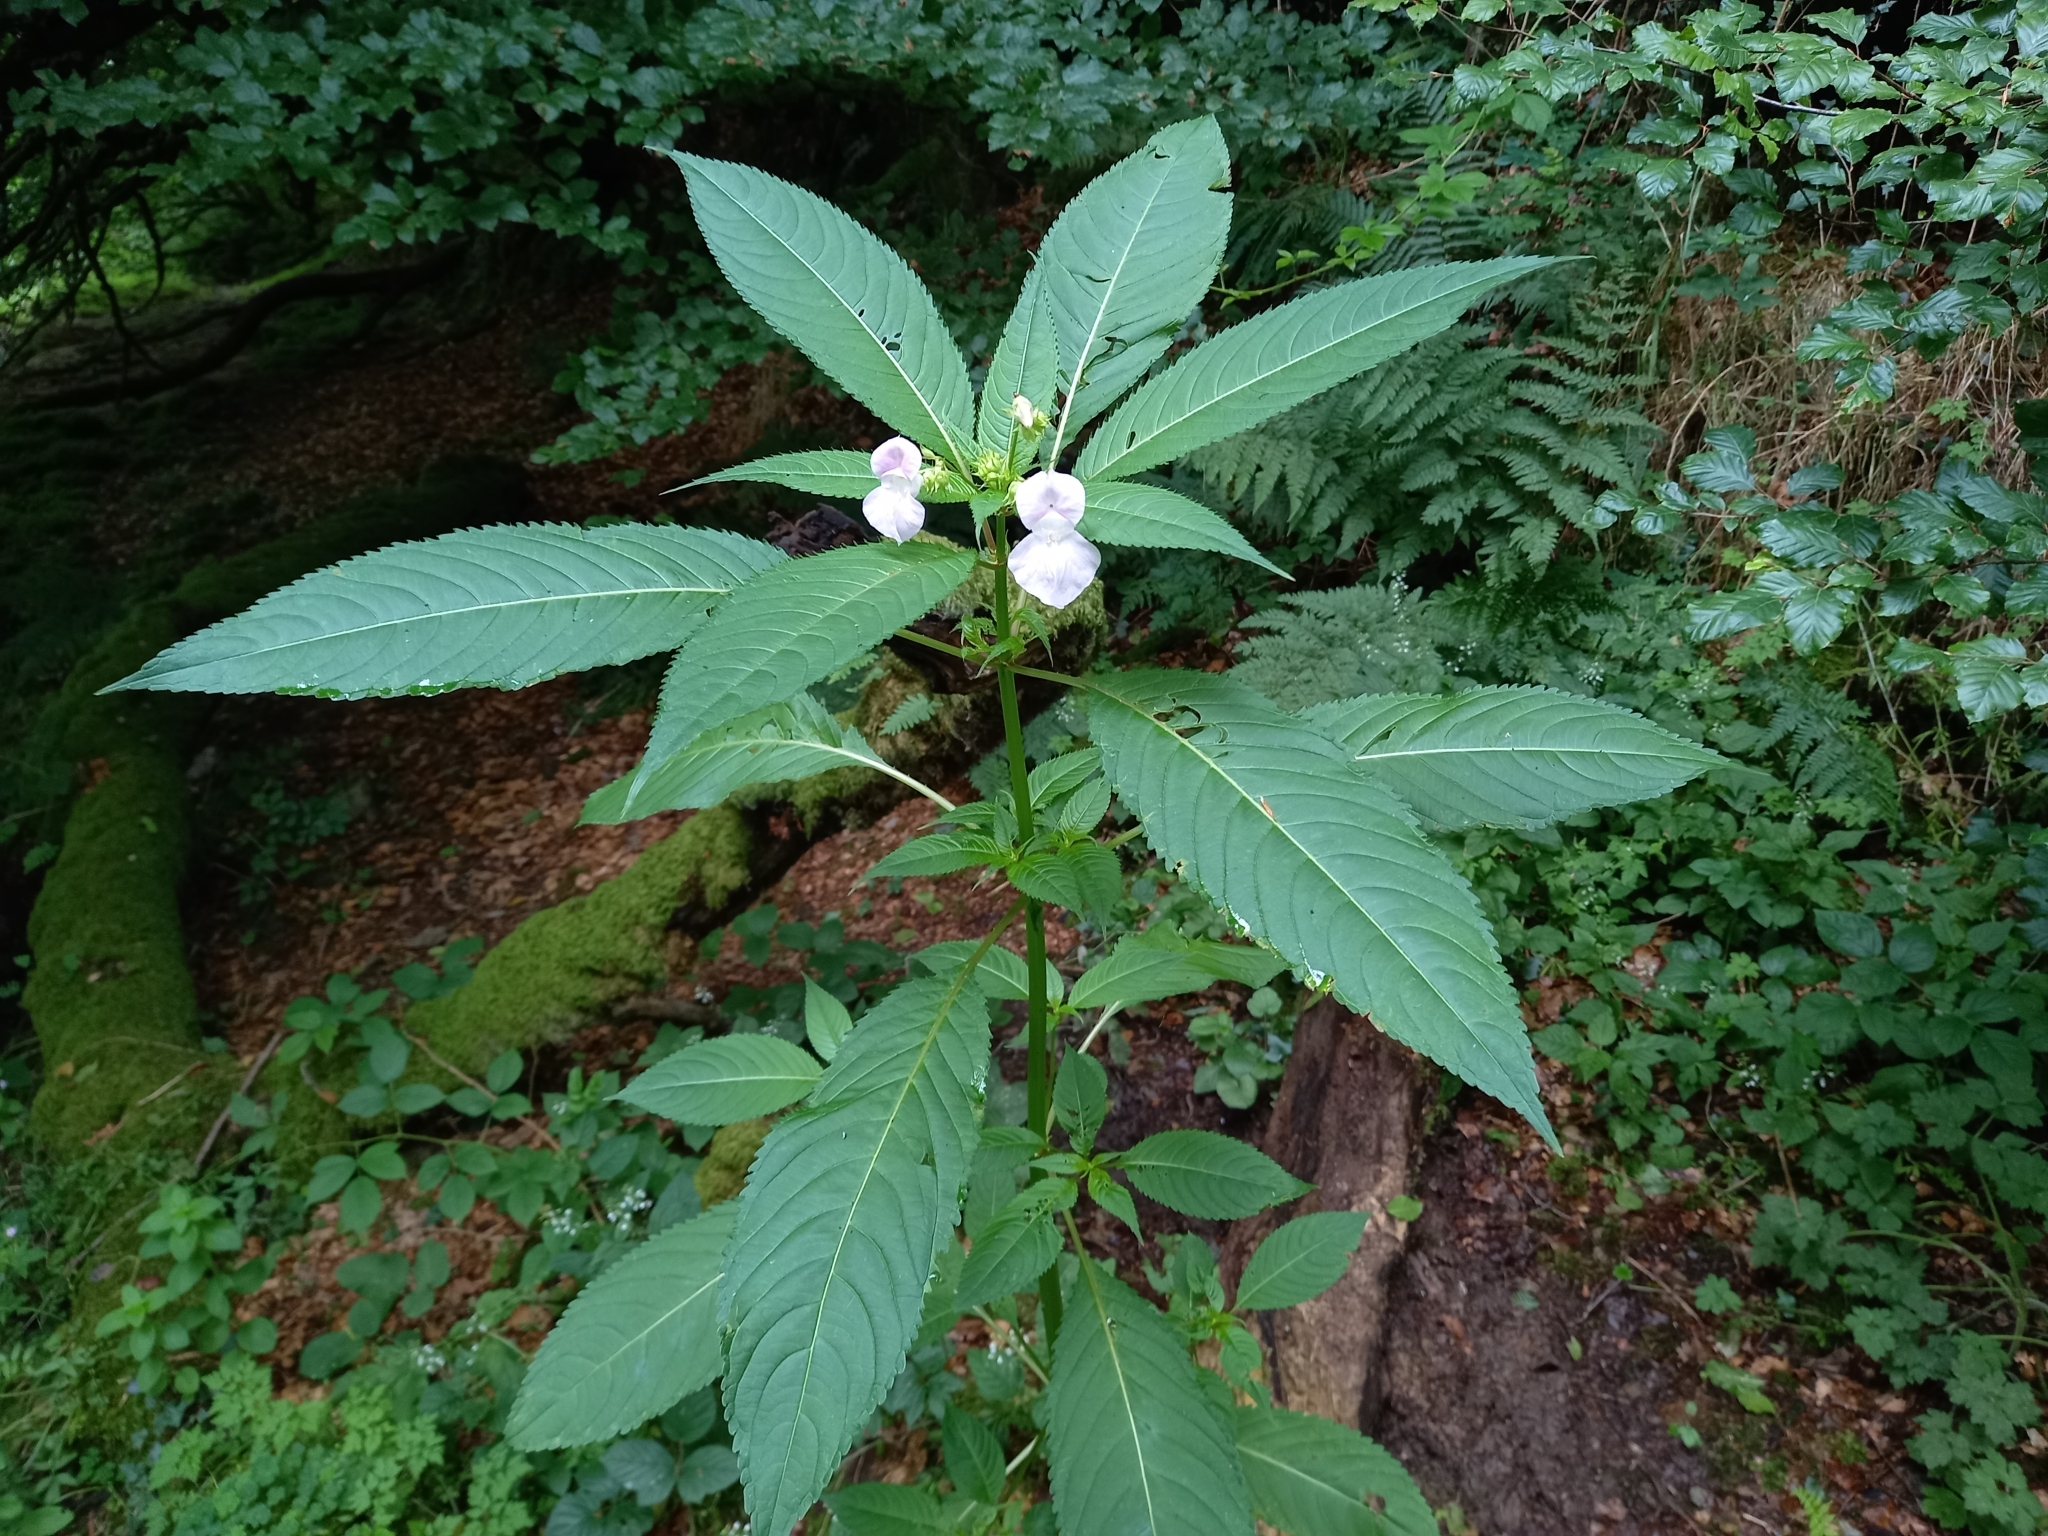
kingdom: Plantae
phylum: Tracheophyta
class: Magnoliopsida
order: Ericales
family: Balsaminaceae
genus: Impatiens
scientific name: Impatiens glandulifera
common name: Himalayan balsam
